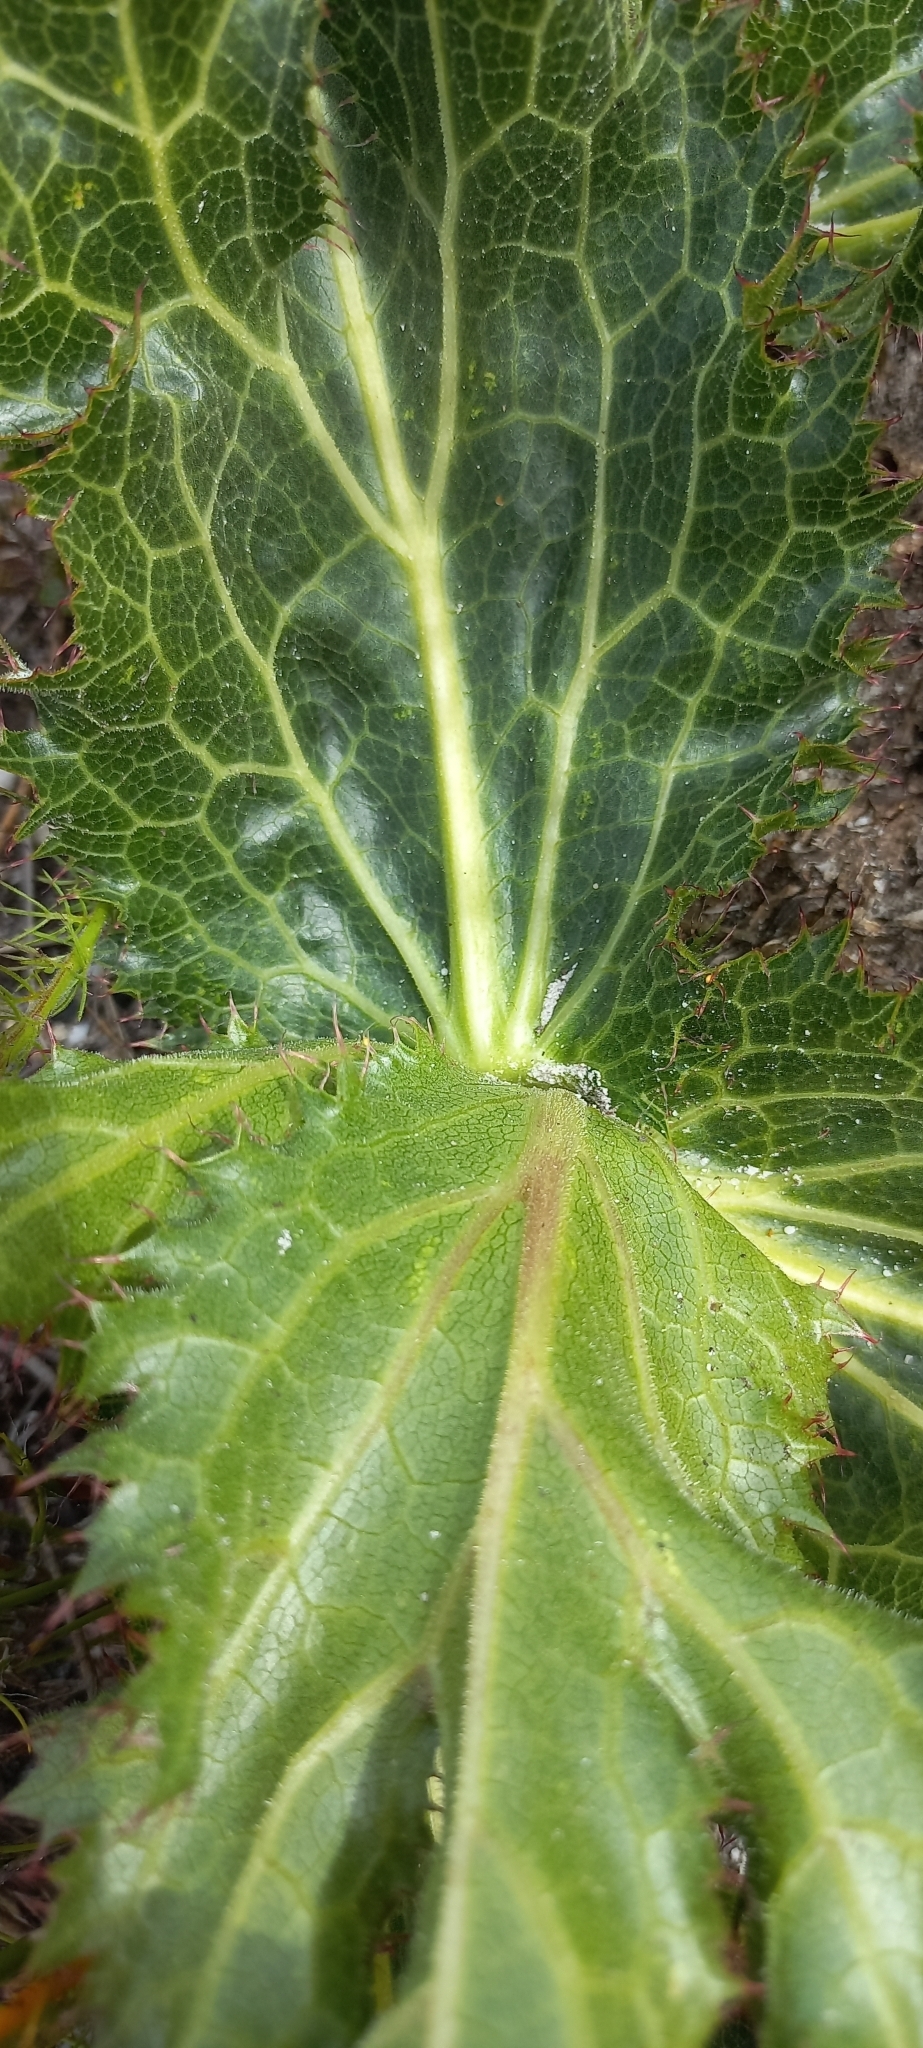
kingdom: Plantae
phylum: Tracheophyta
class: Magnoliopsida
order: Apiales
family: Apiaceae
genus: Lichtensteinia
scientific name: Lichtensteinia lacera
